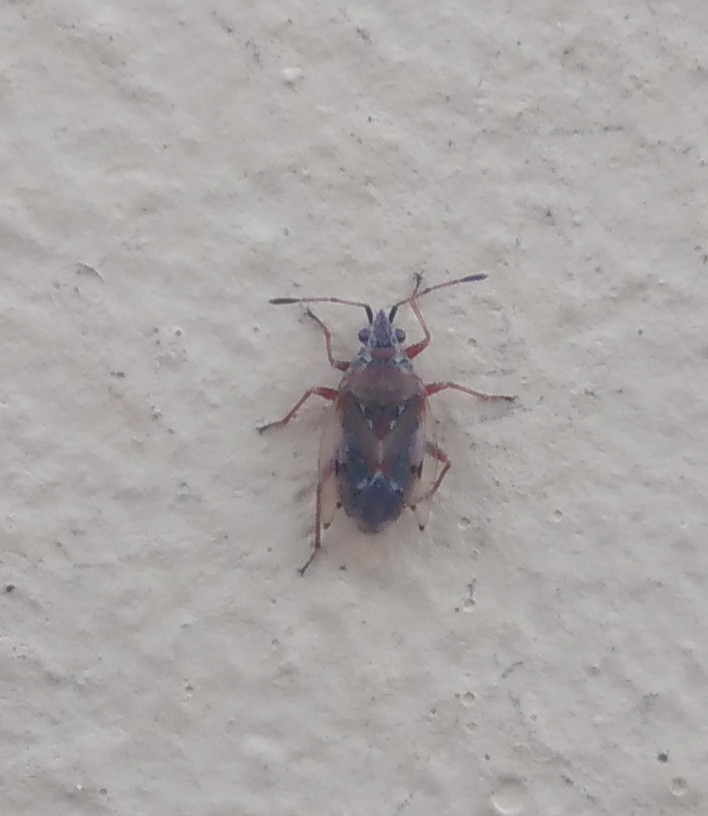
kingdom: Animalia
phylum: Arthropoda
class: Insecta
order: Hemiptera
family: Lygaeidae
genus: Kleidocerys
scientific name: Kleidocerys resedae
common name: Birch catkin bug
